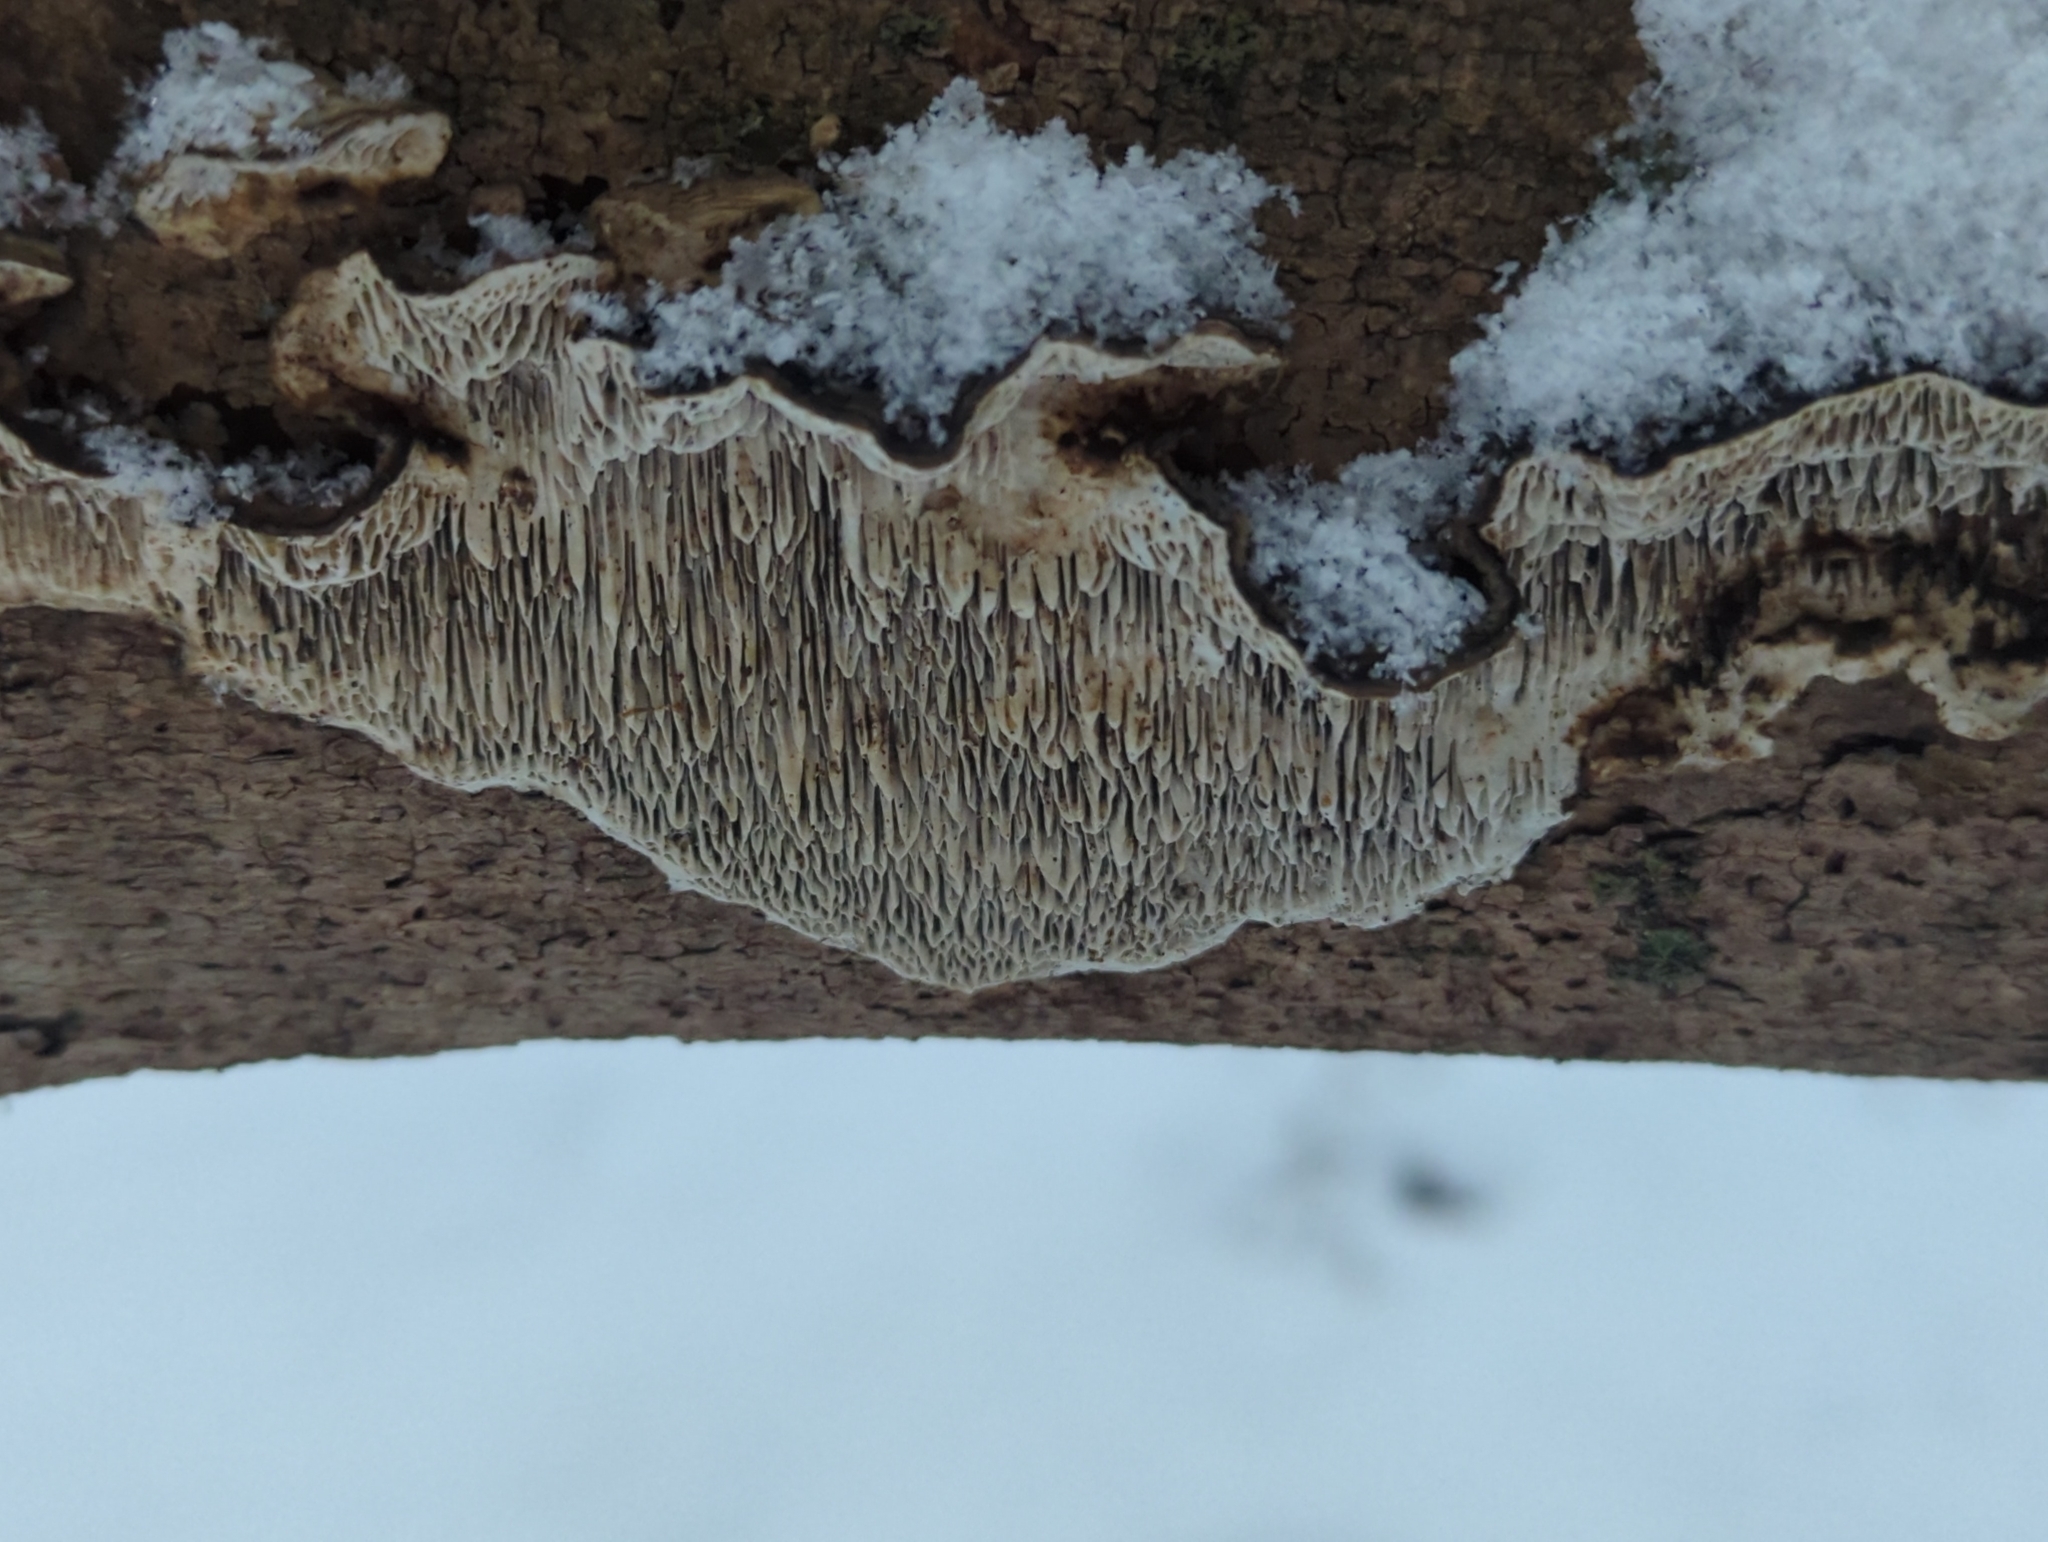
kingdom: Fungi
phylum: Basidiomycota
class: Agaricomycetes
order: Polyporales
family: Polyporaceae
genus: Podofomes
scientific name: Podofomes mollis
